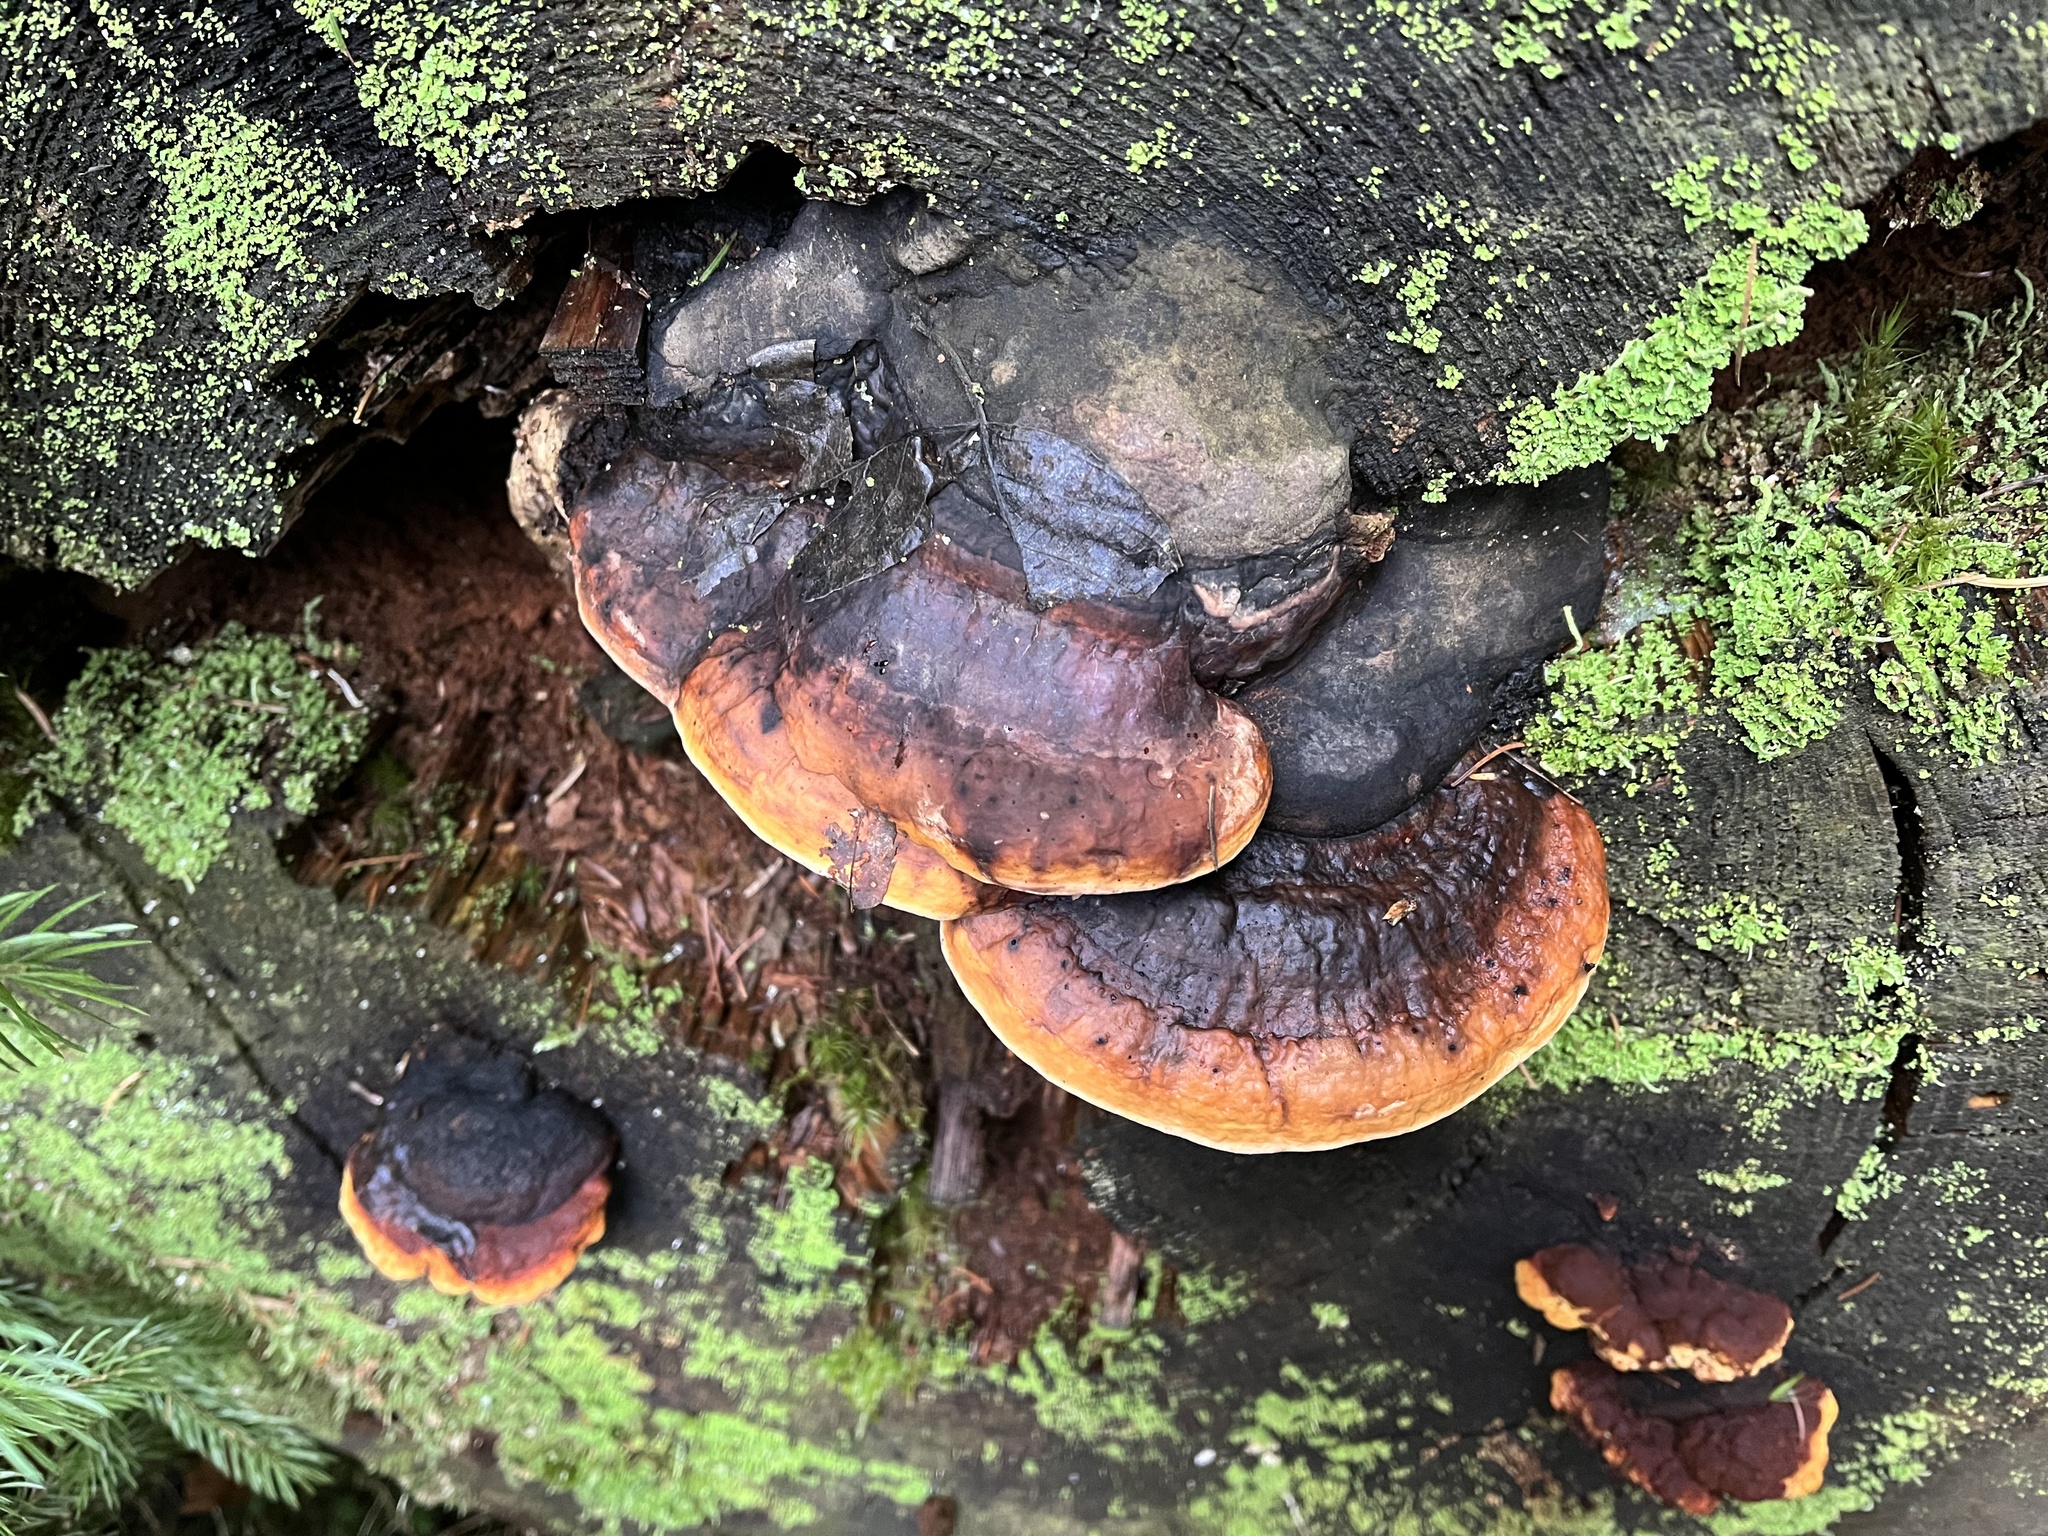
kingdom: Fungi
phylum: Basidiomycota
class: Agaricomycetes
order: Polyporales
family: Fomitopsidaceae
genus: Fomitopsis
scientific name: Fomitopsis pinicola
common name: Red-belted bracket
